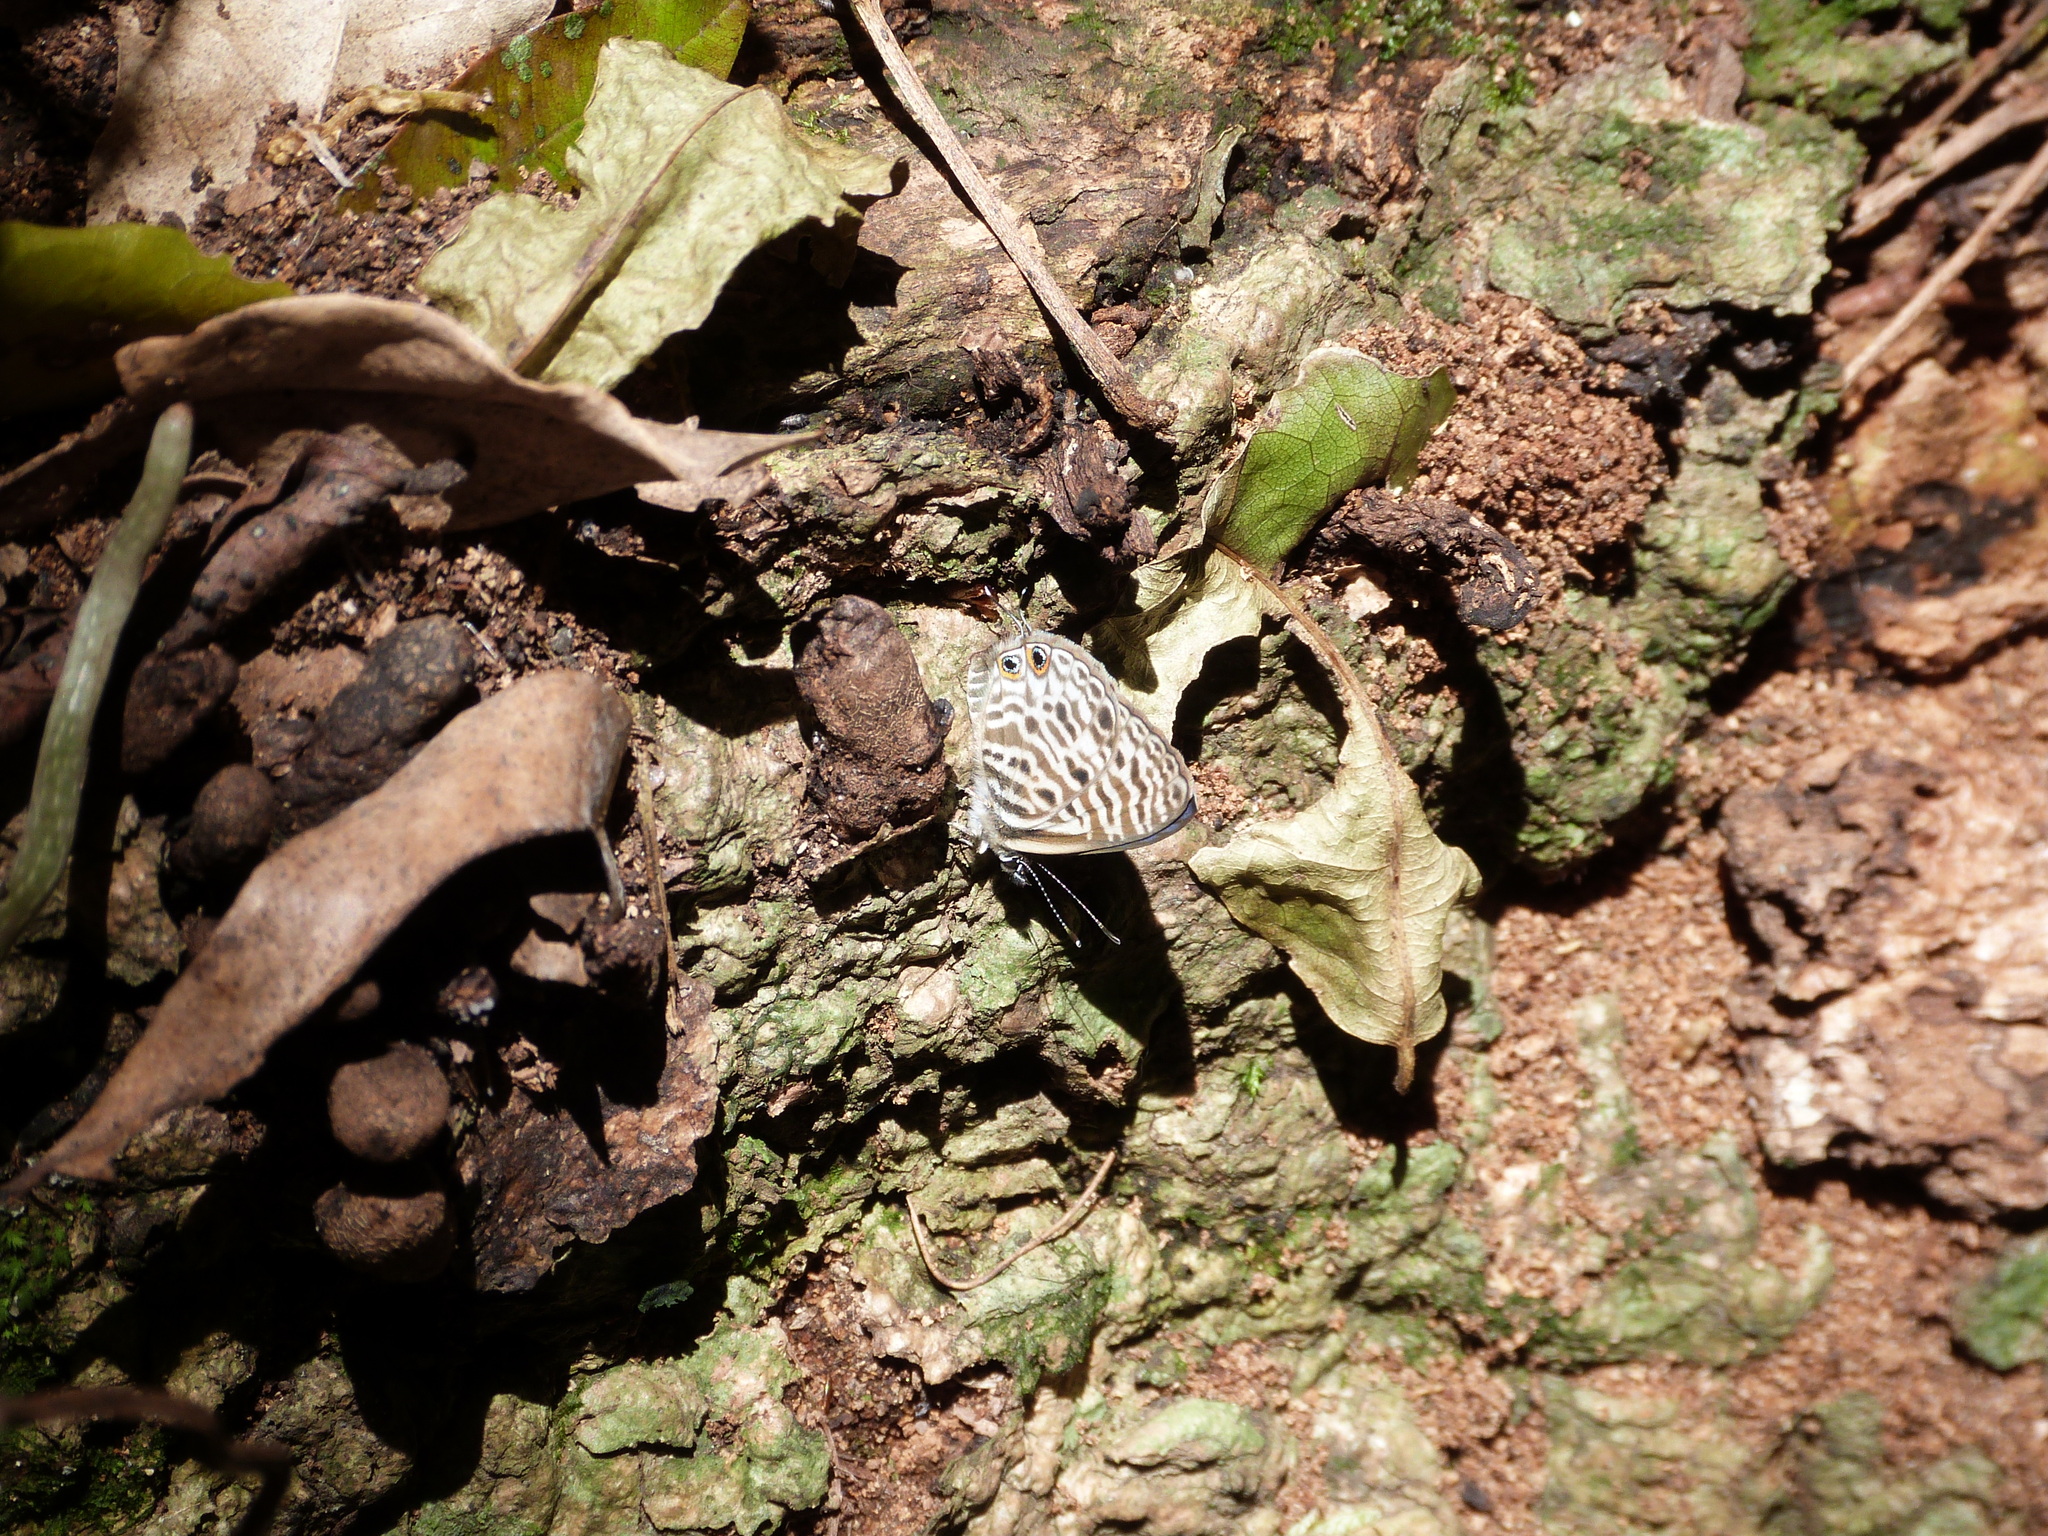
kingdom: Animalia
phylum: Arthropoda
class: Insecta
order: Lepidoptera
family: Lycaenidae
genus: Leptotes
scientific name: Leptotes
